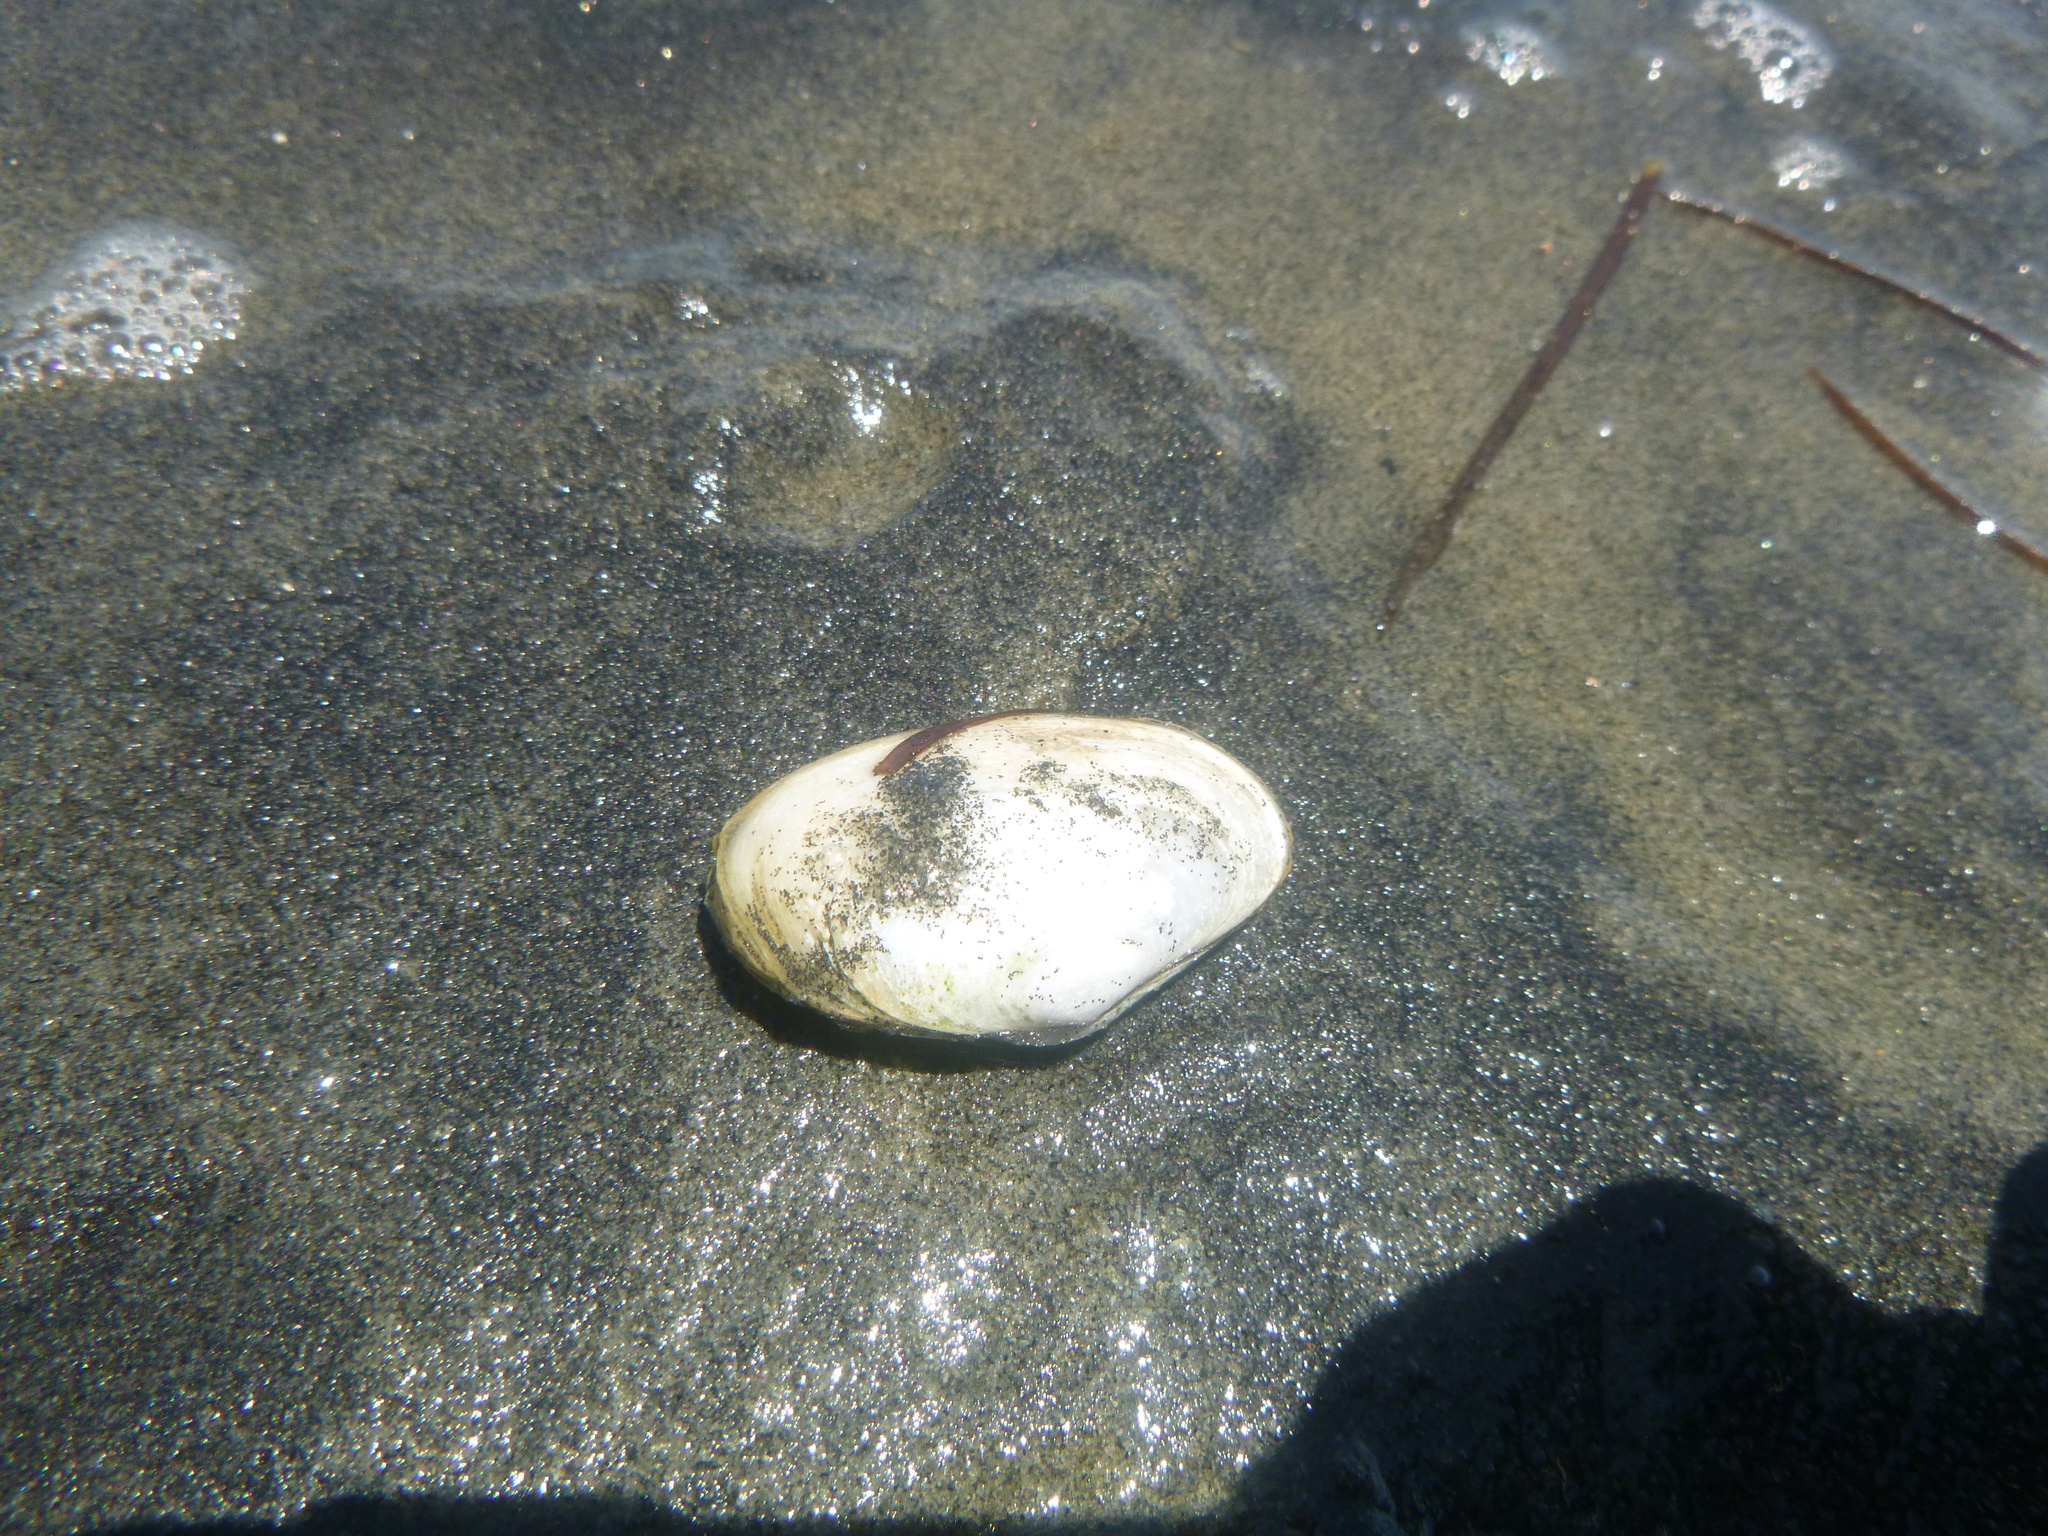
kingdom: Animalia
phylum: Mollusca
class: Bivalvia
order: Venerida
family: Mesodesmatidae
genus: Paphies
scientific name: Paphies australis
